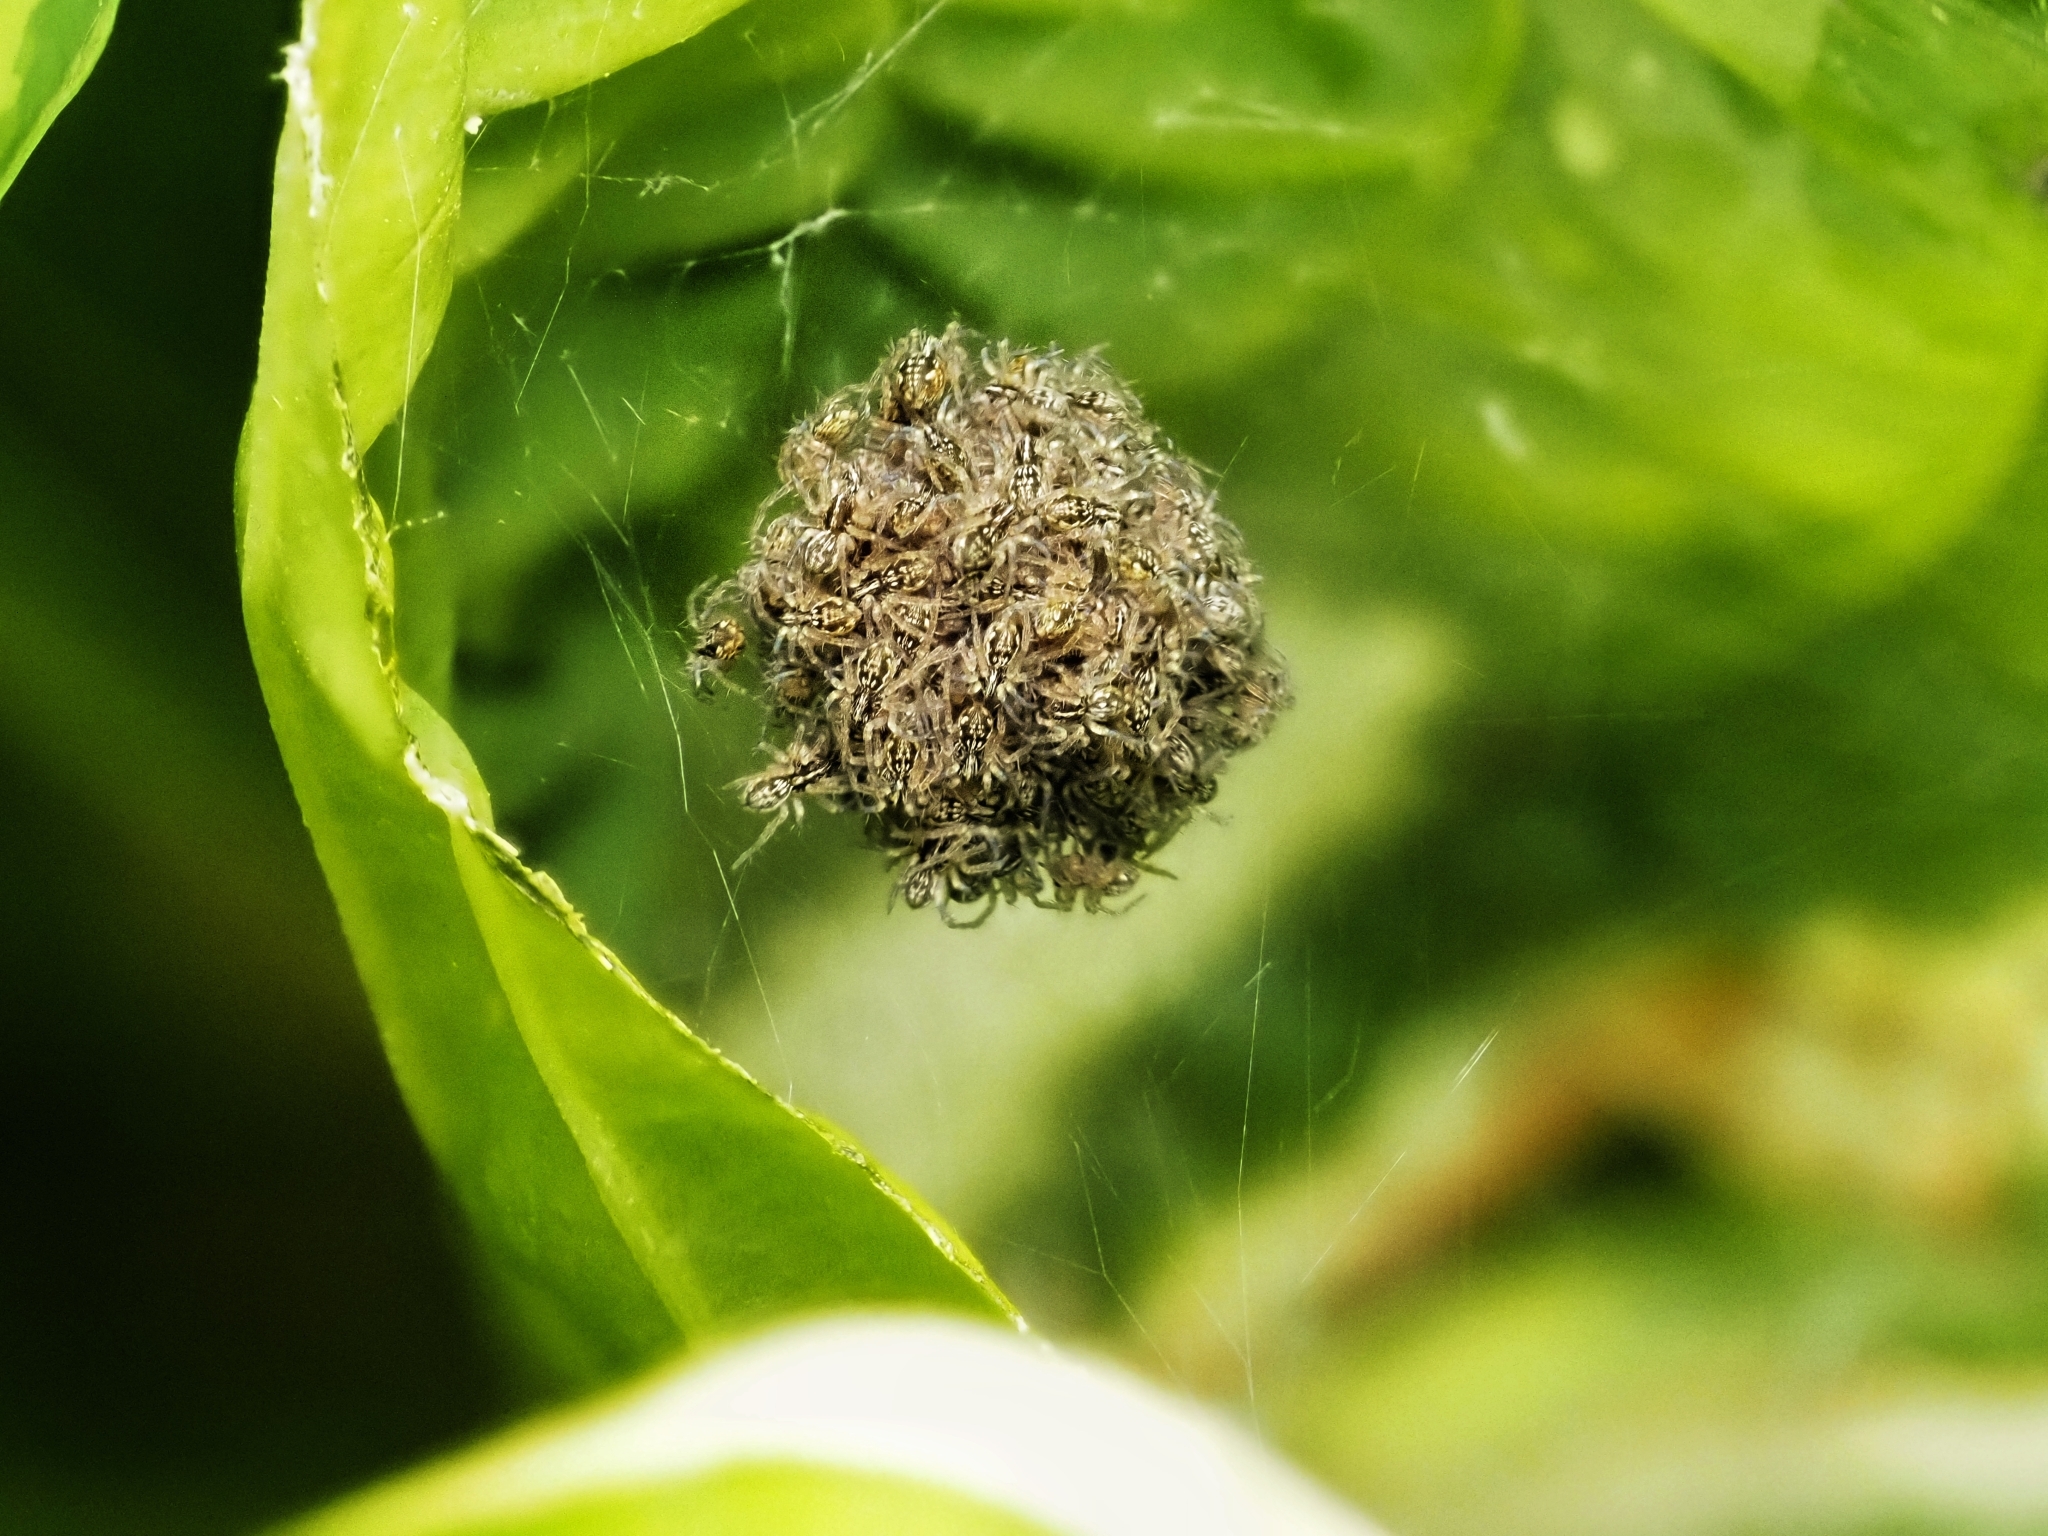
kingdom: Animalia
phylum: Arthropoda
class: Arachnida
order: Araneae
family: Pisauridae
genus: Pisaura
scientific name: Pisaura mirabilis
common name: Tent spider
